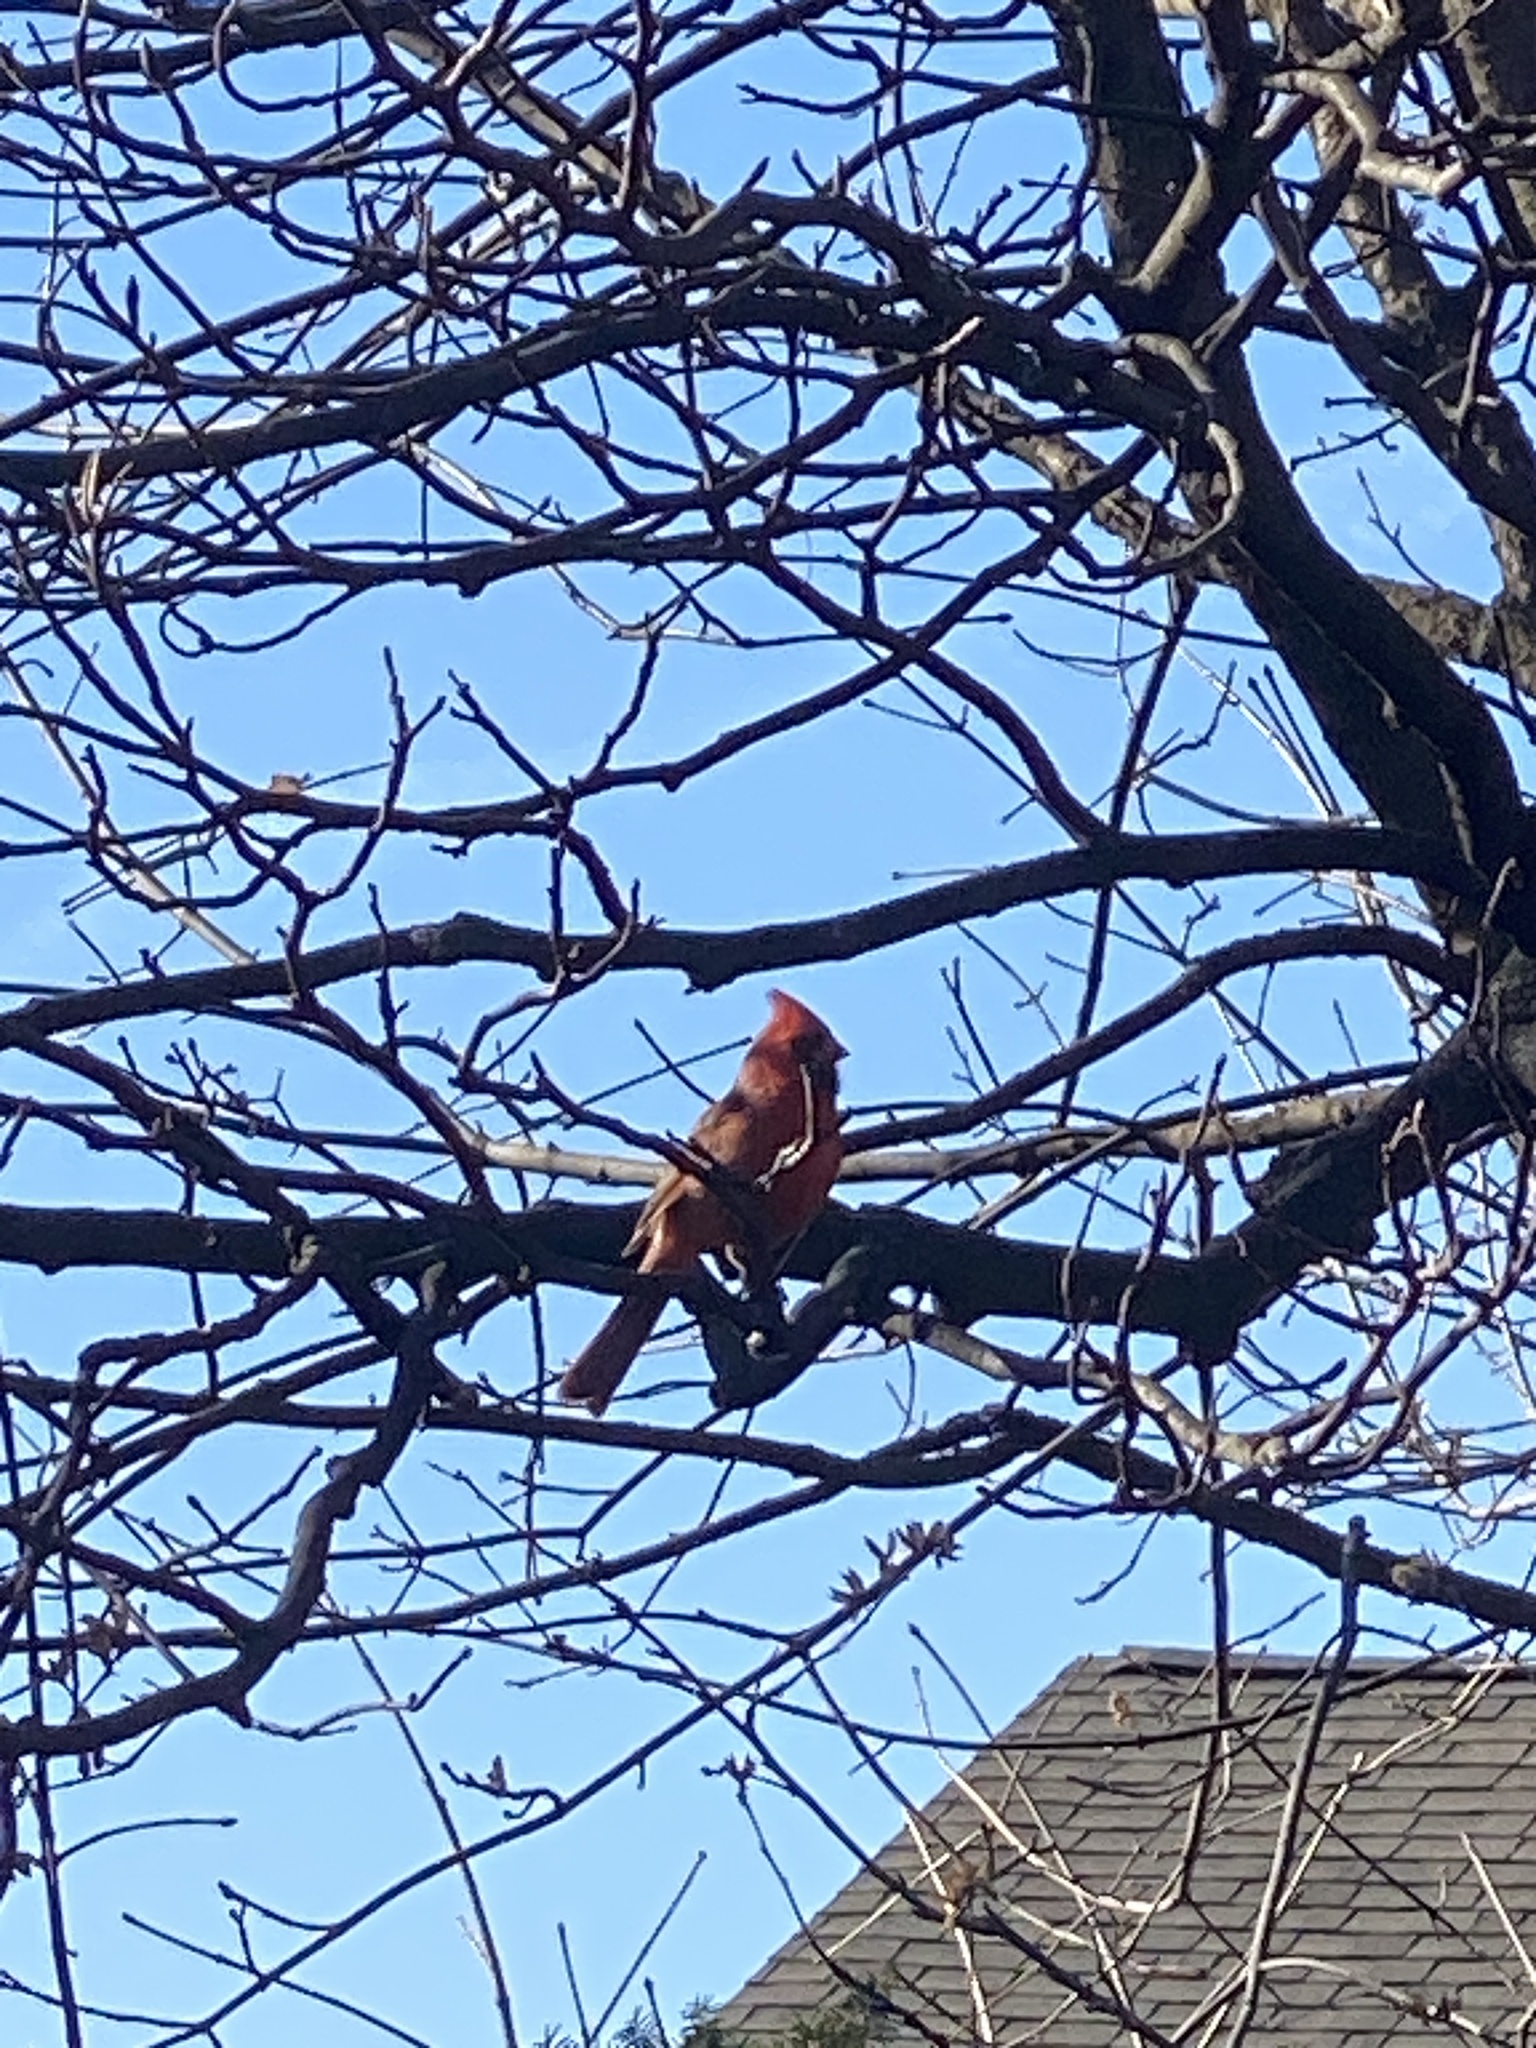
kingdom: Animalia
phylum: Chordata
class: Aves
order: Passeriformes
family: Cardinalidae
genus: Cardinalis
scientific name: Cardinalis cardinalis
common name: Northern cardinal
